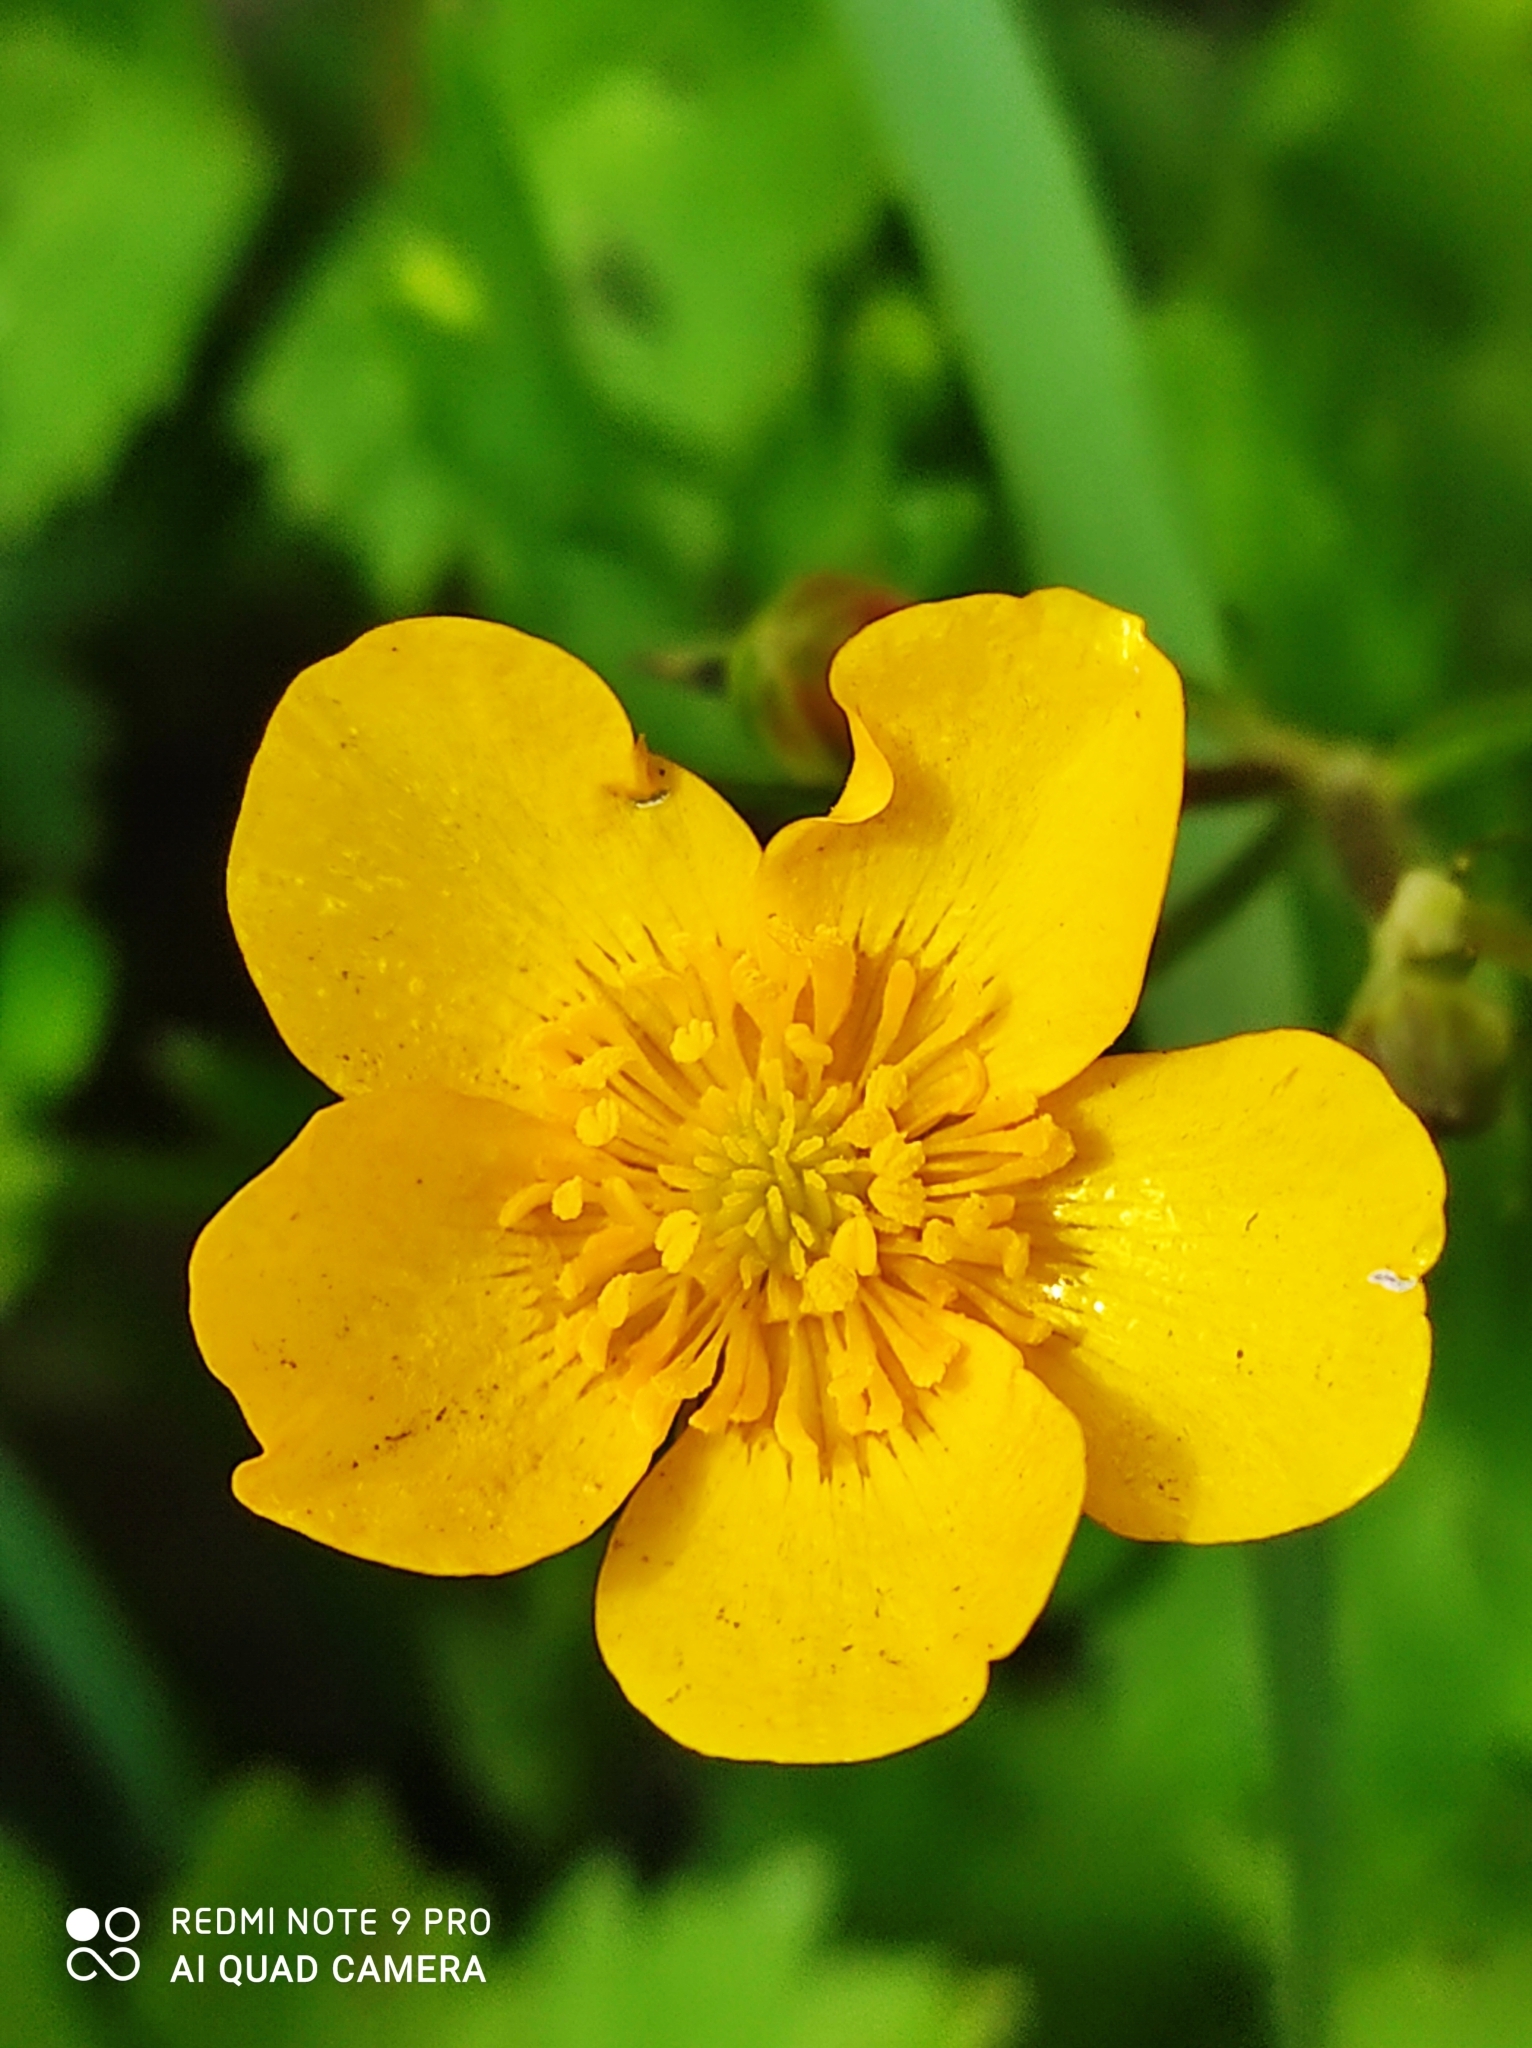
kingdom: Plantae
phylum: Tracheophyta
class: Magnoliopsida
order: Ranunculales
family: Ranunculaceae
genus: Ranunculus
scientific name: Ranunculus repens
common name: Creeping buttercup
